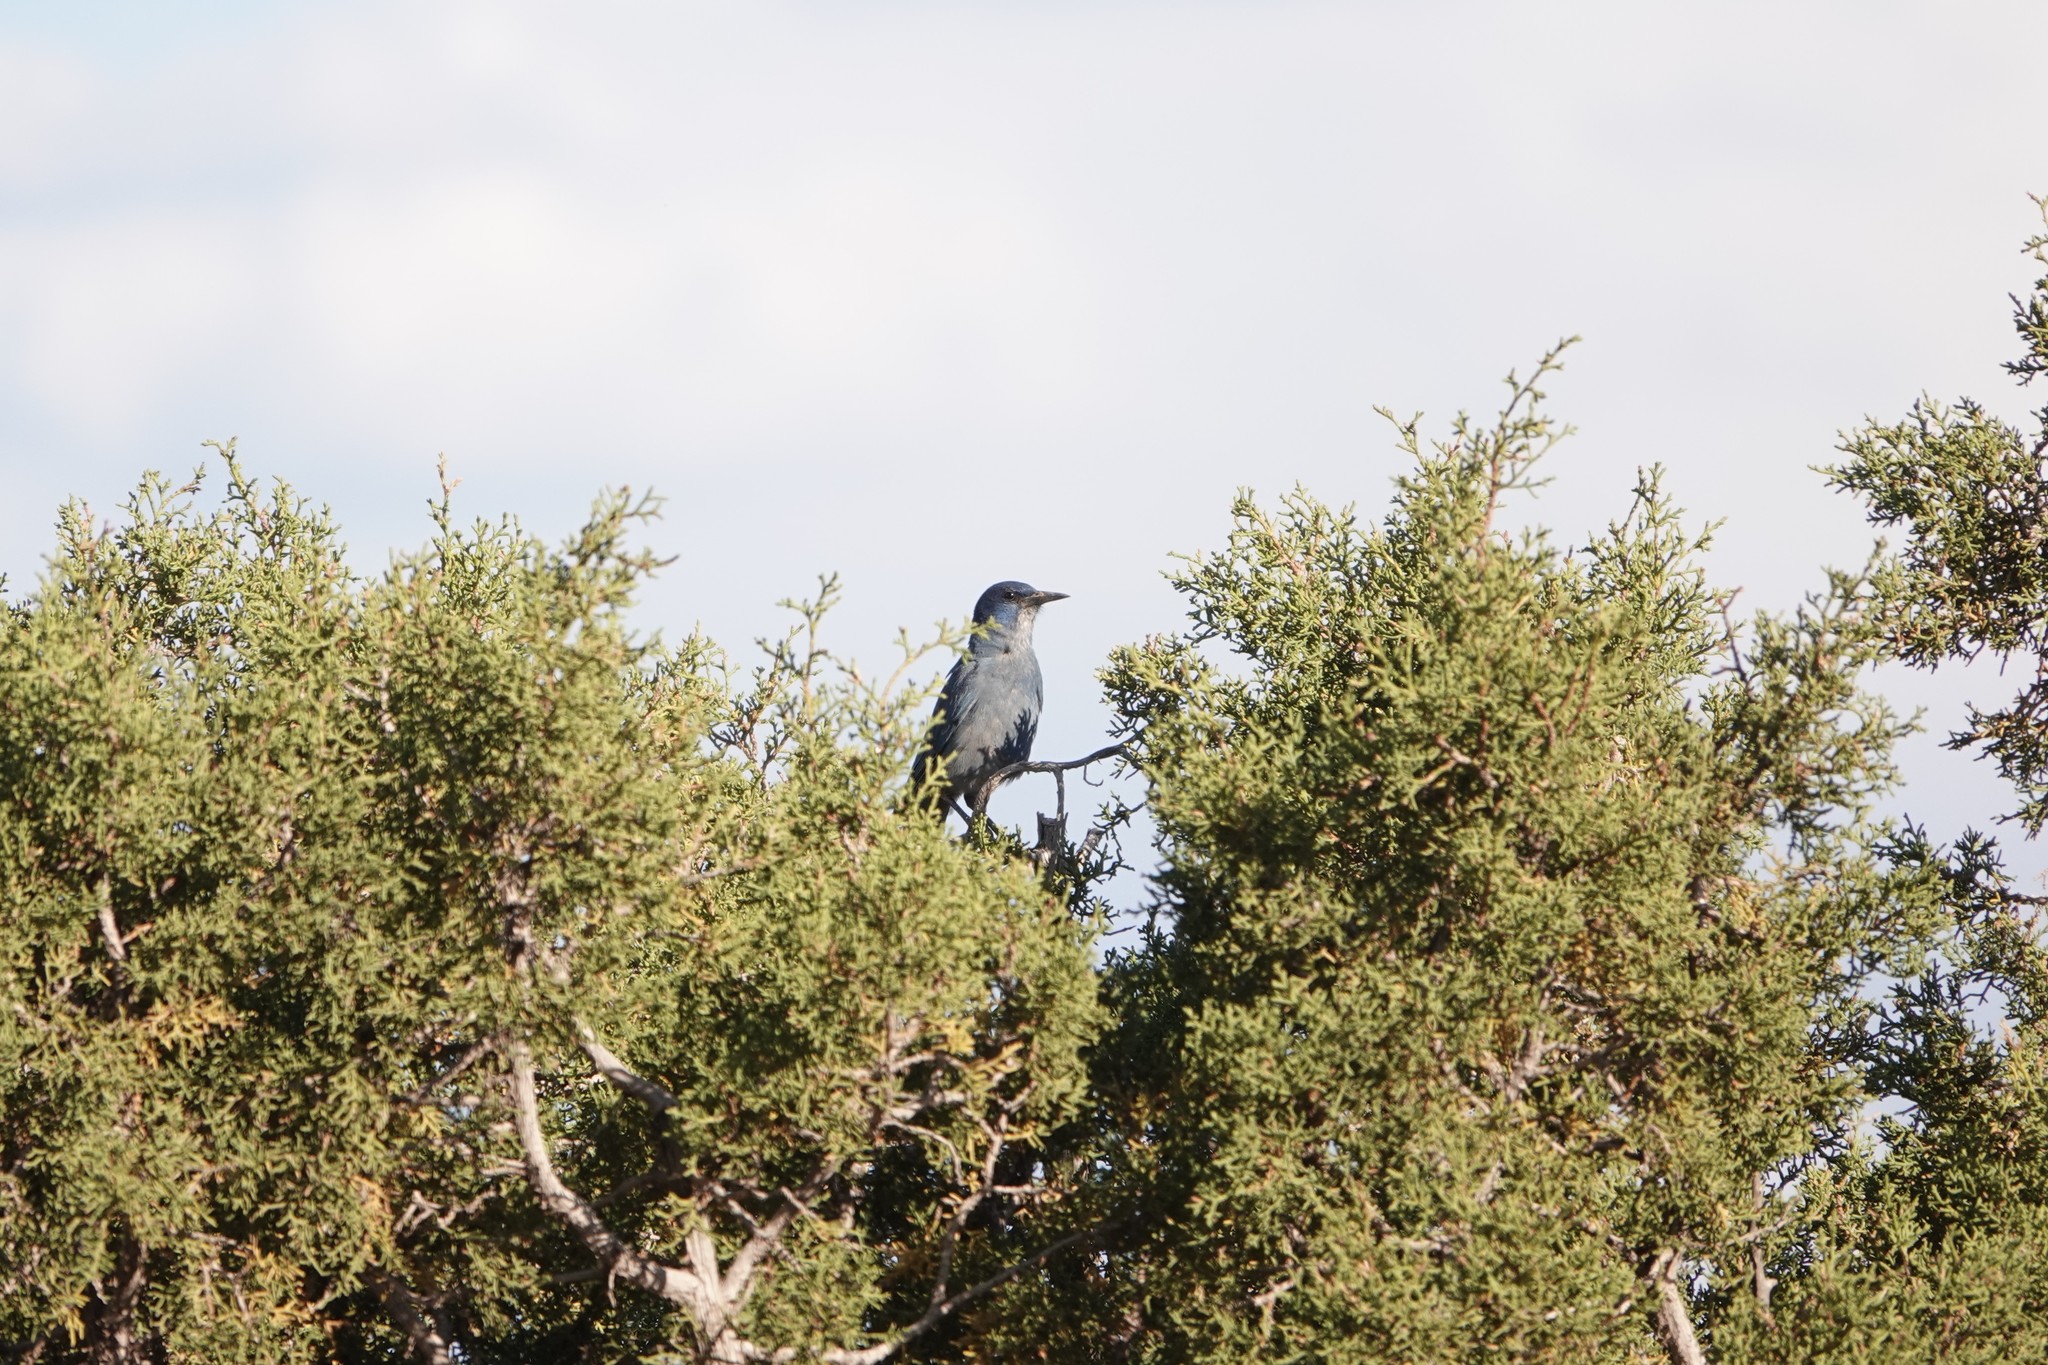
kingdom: Animalia
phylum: Chordata
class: Aves
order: Passeriformes
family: Corvidae
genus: Gymnorhinus
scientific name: Gymnorhinus cyanocephalus
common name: Pinyon jay
